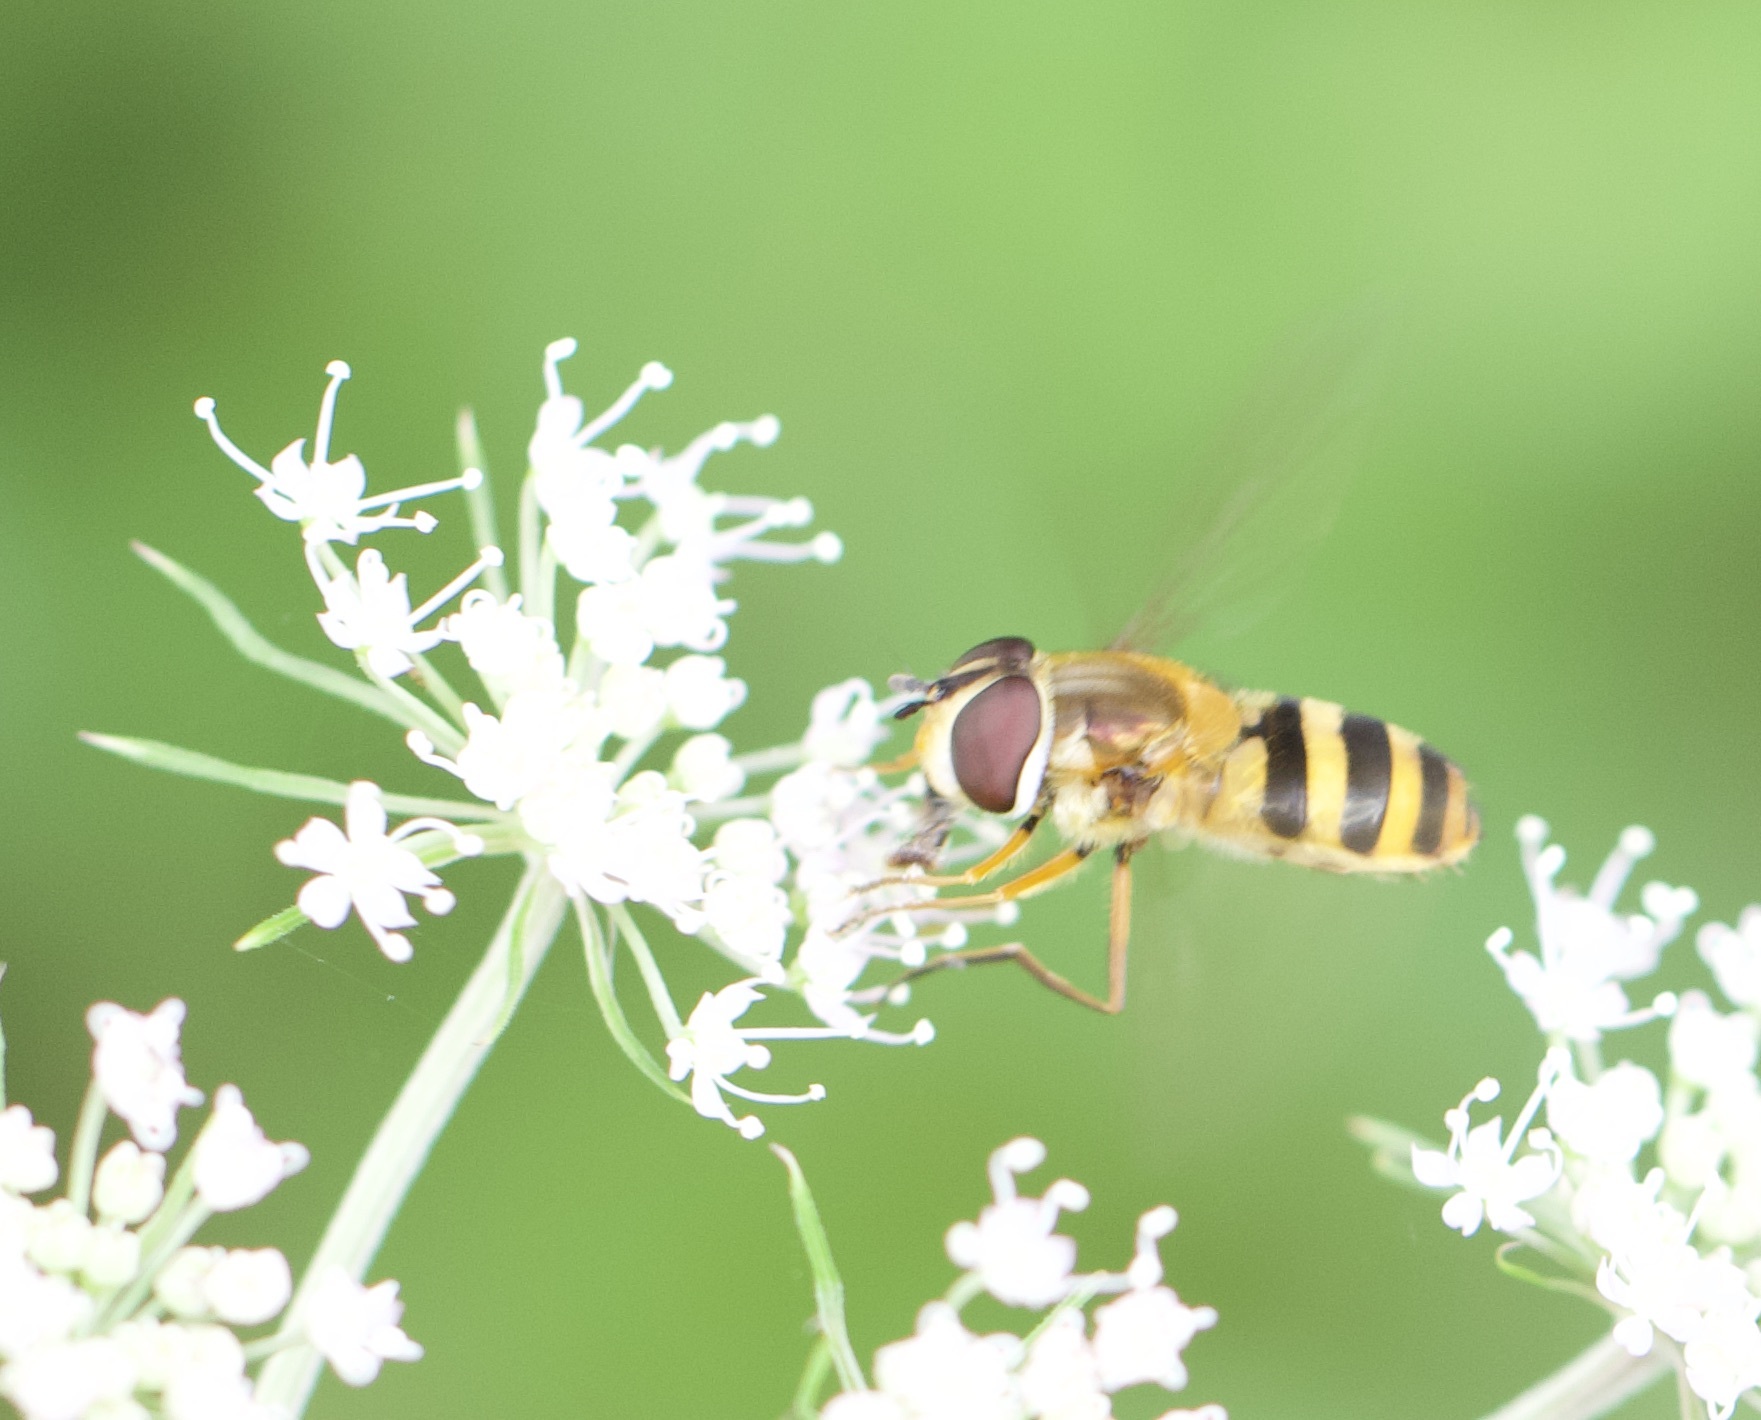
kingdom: Animalia
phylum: Arthropoda
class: Insecta
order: Diptera
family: Syrphidae
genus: Epistrophe
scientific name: Epistrophe grossulariae
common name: Black-horned smoothtail
